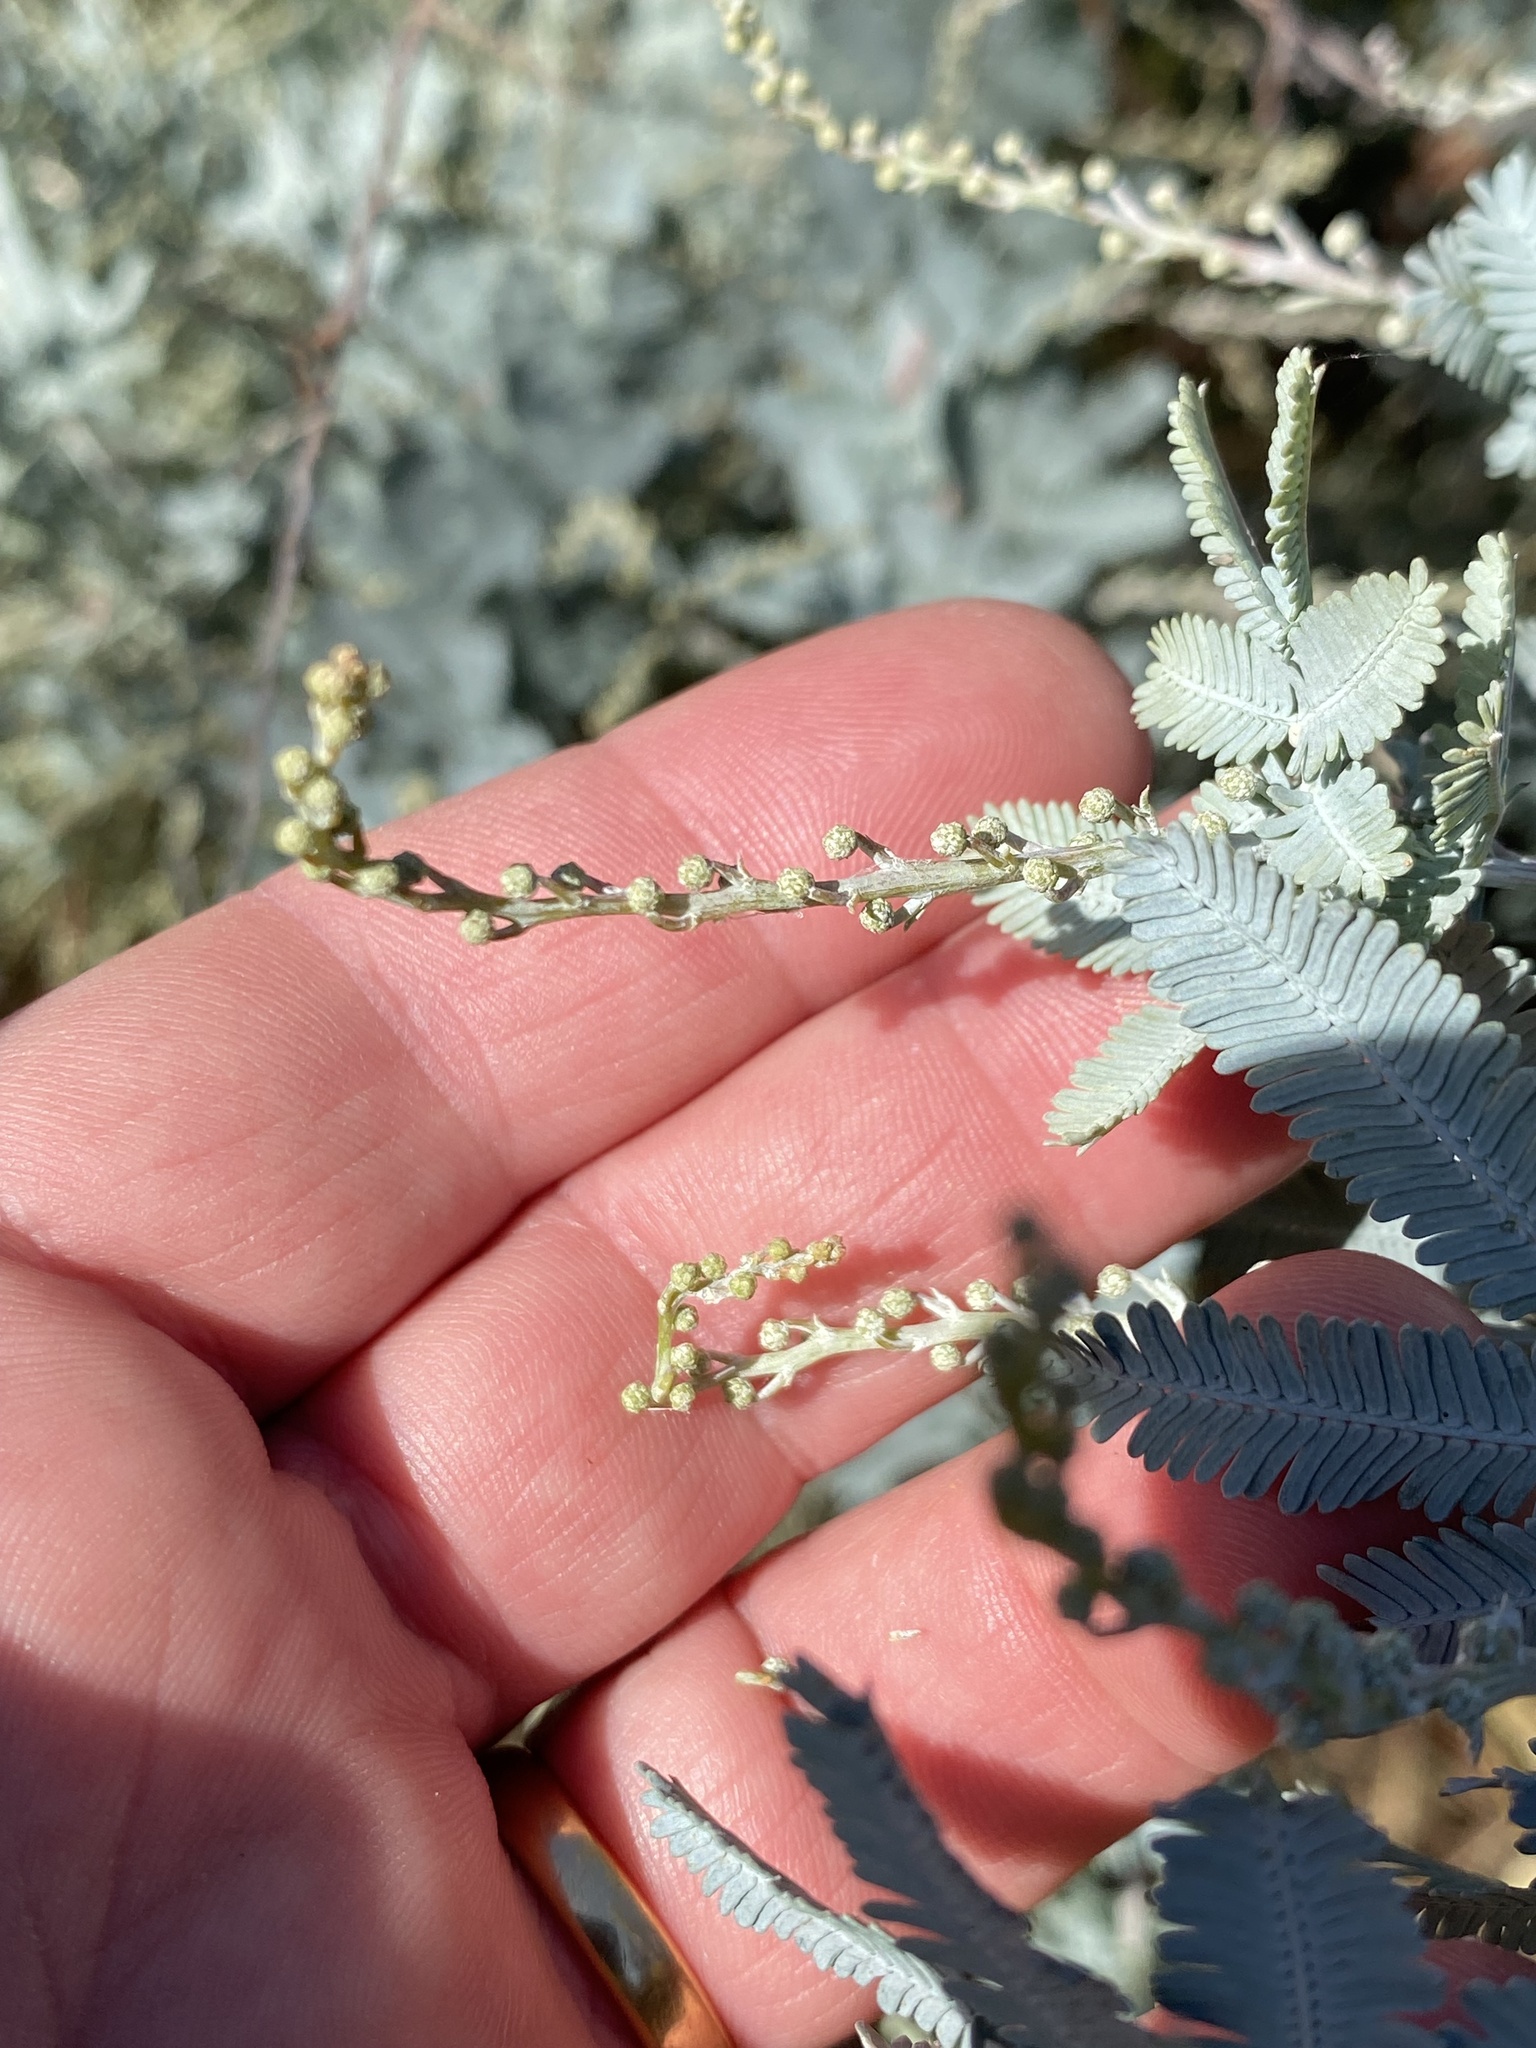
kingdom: Plantae
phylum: Tracheophyta
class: Magnoliopsida
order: Fabales
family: Fabaceae
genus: Acacia
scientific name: Acacia baileyana
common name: Cootamundra wattle
